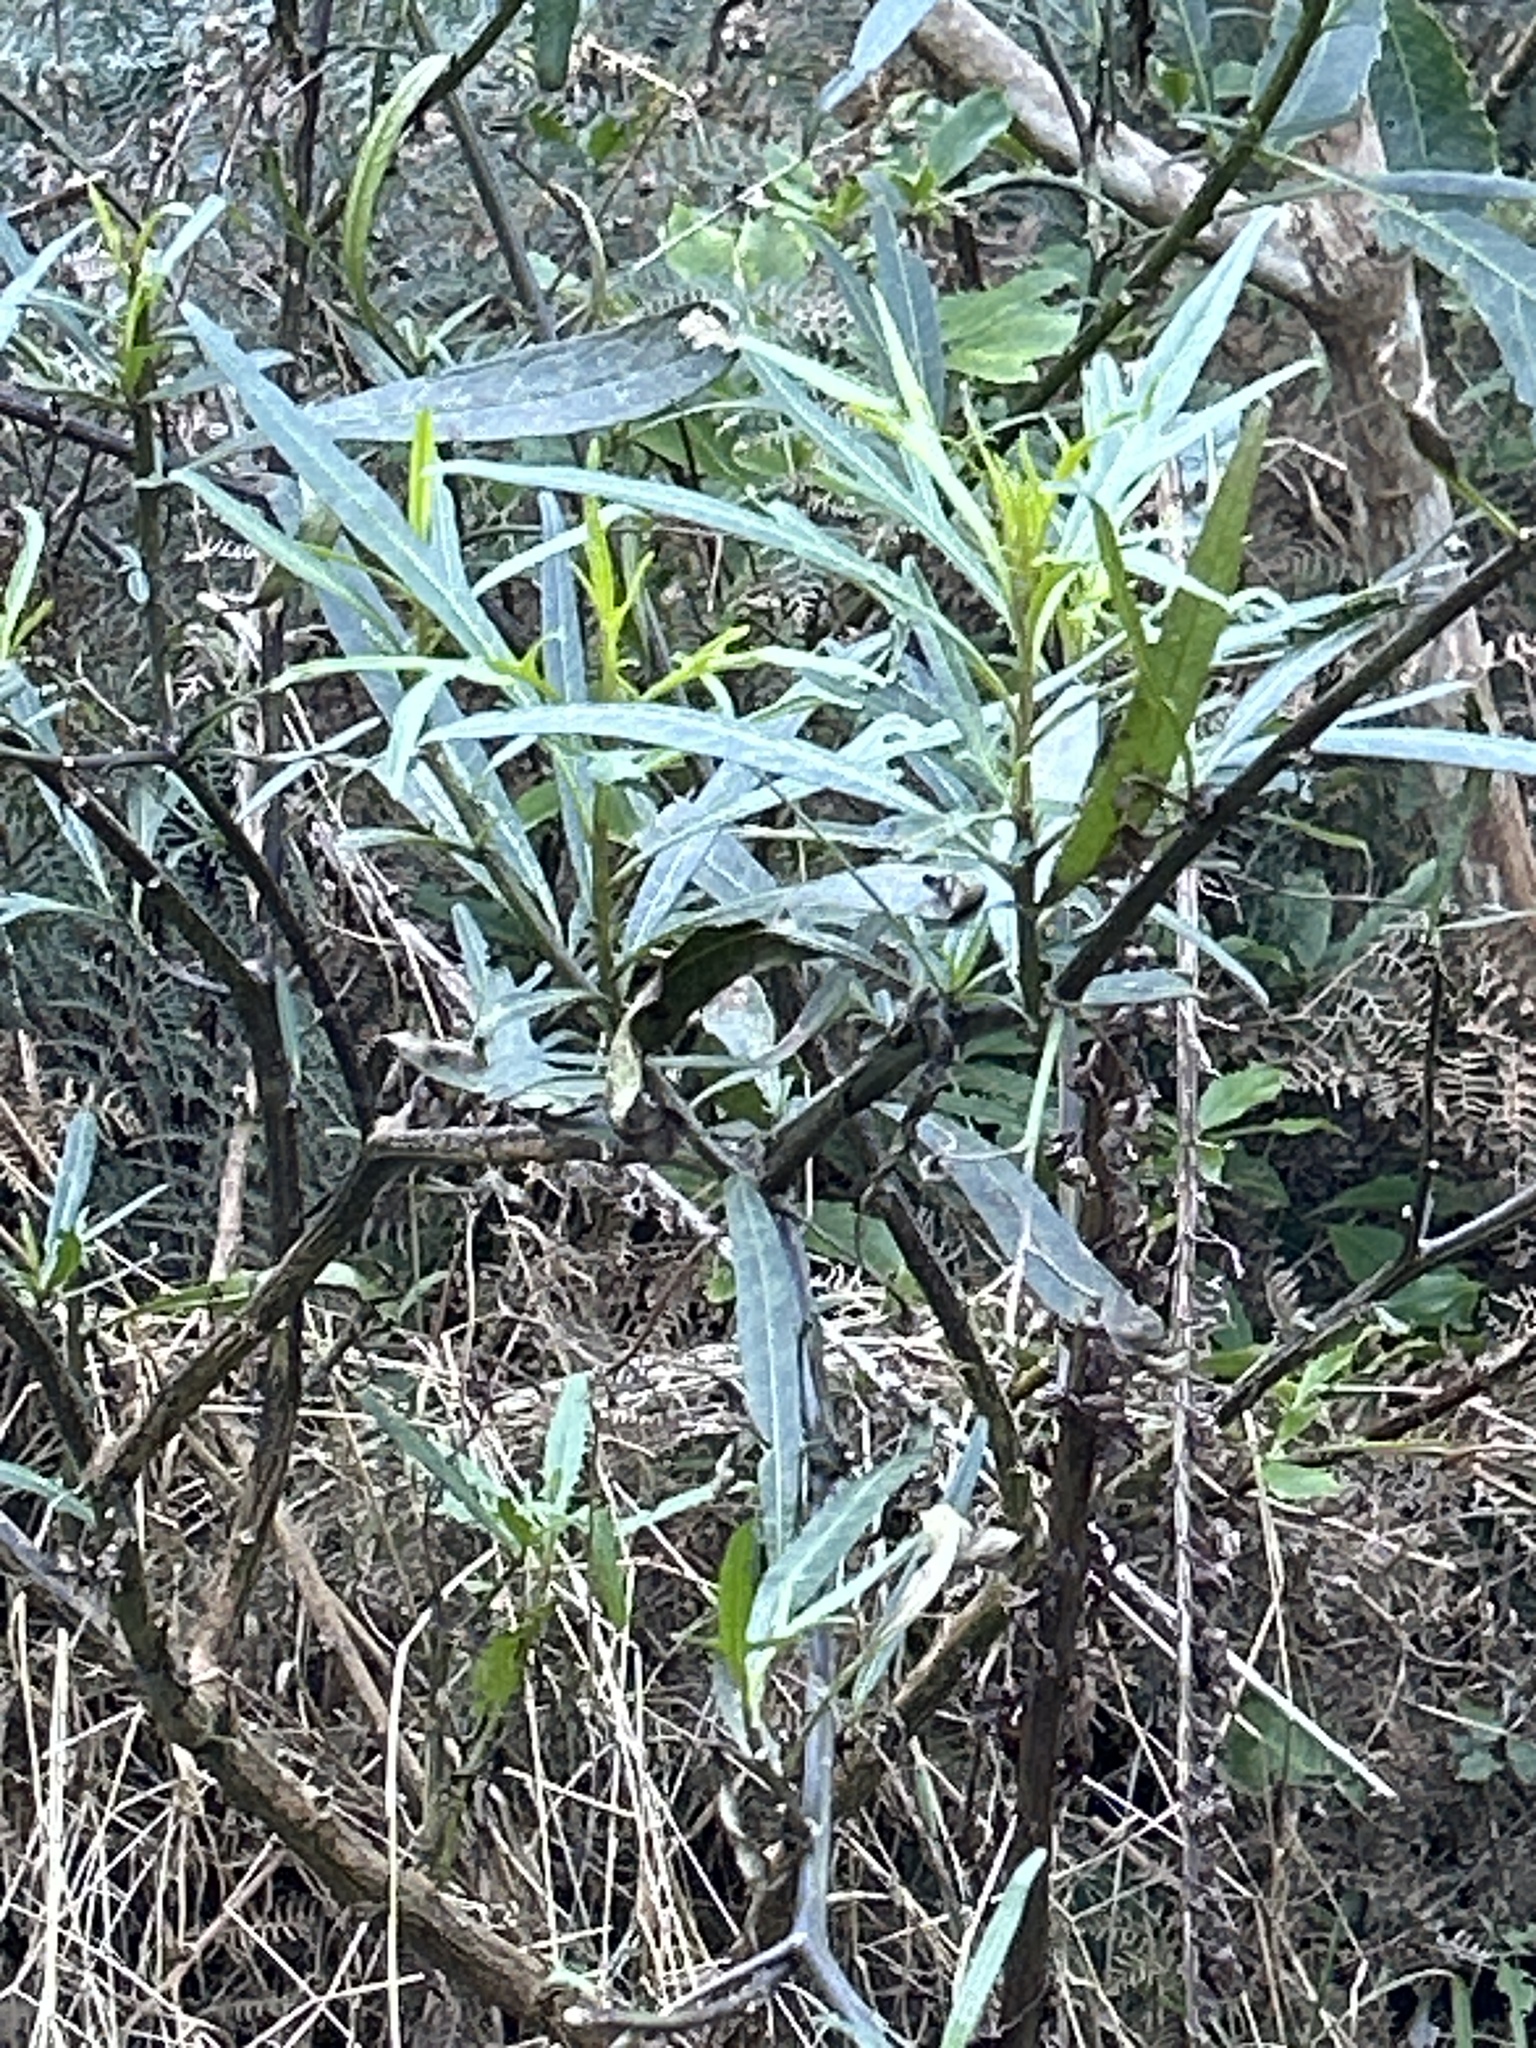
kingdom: Plantae
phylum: Tracheophyta
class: Magnoliopsida
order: Solanales
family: Solanaceae
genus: Solanum
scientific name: Solanum
